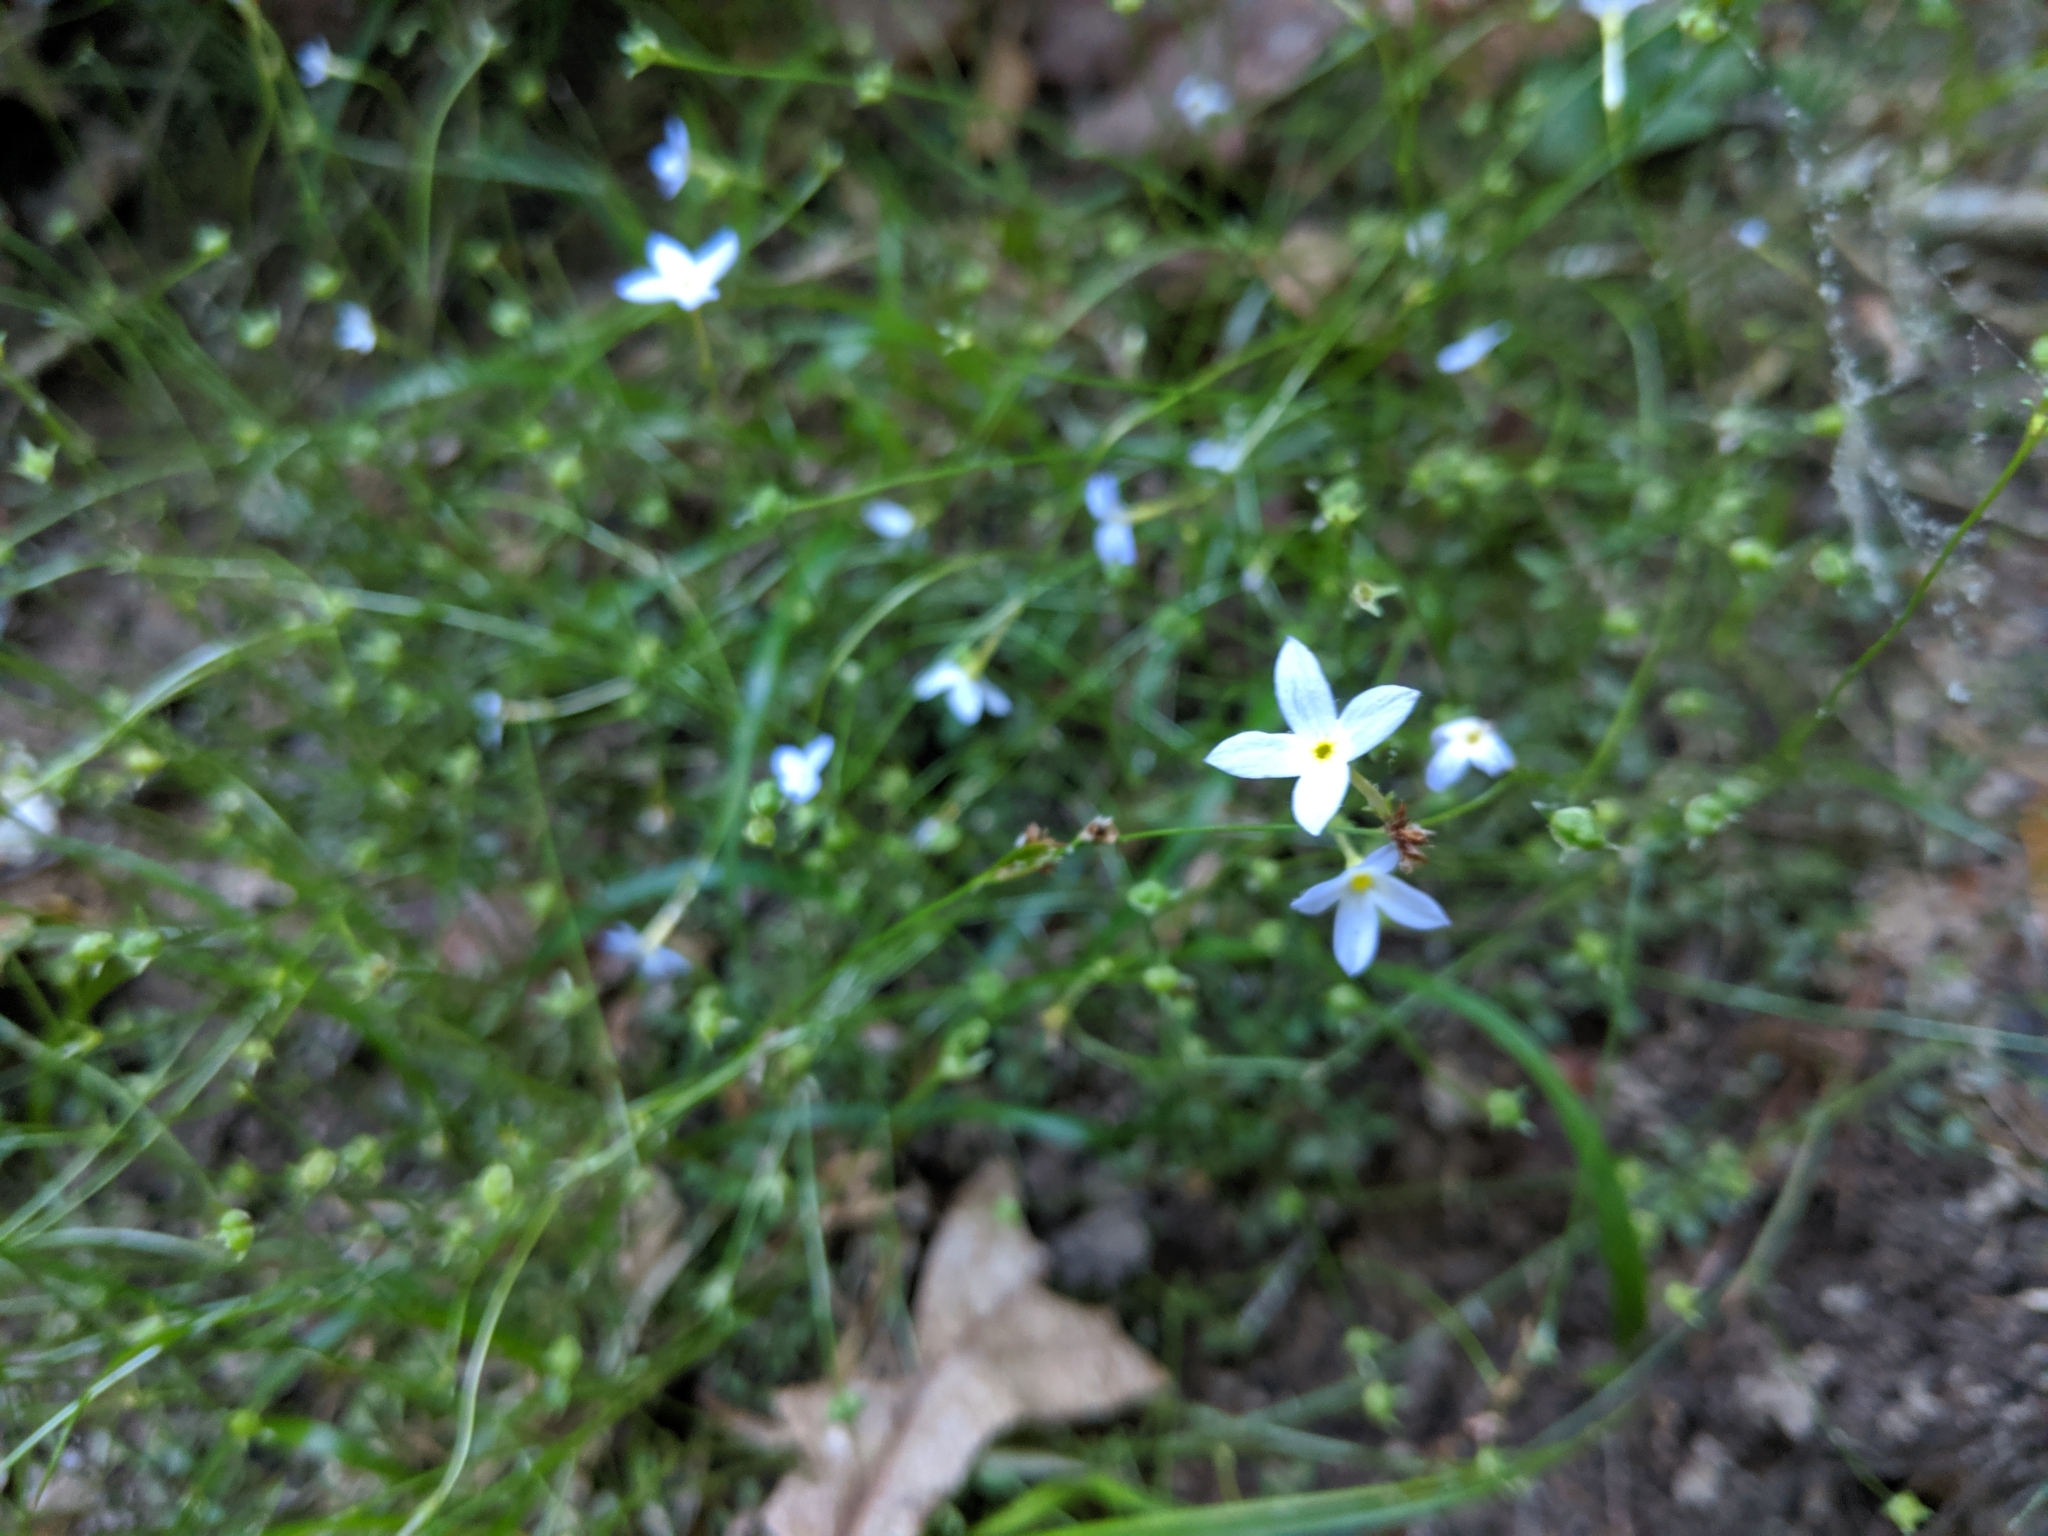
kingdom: Plantae
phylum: Tracheophyta
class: Magnoliopsida
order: Gentianales
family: Rubiaceae
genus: Houstonia
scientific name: Houstonia caerulea
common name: Bluets
